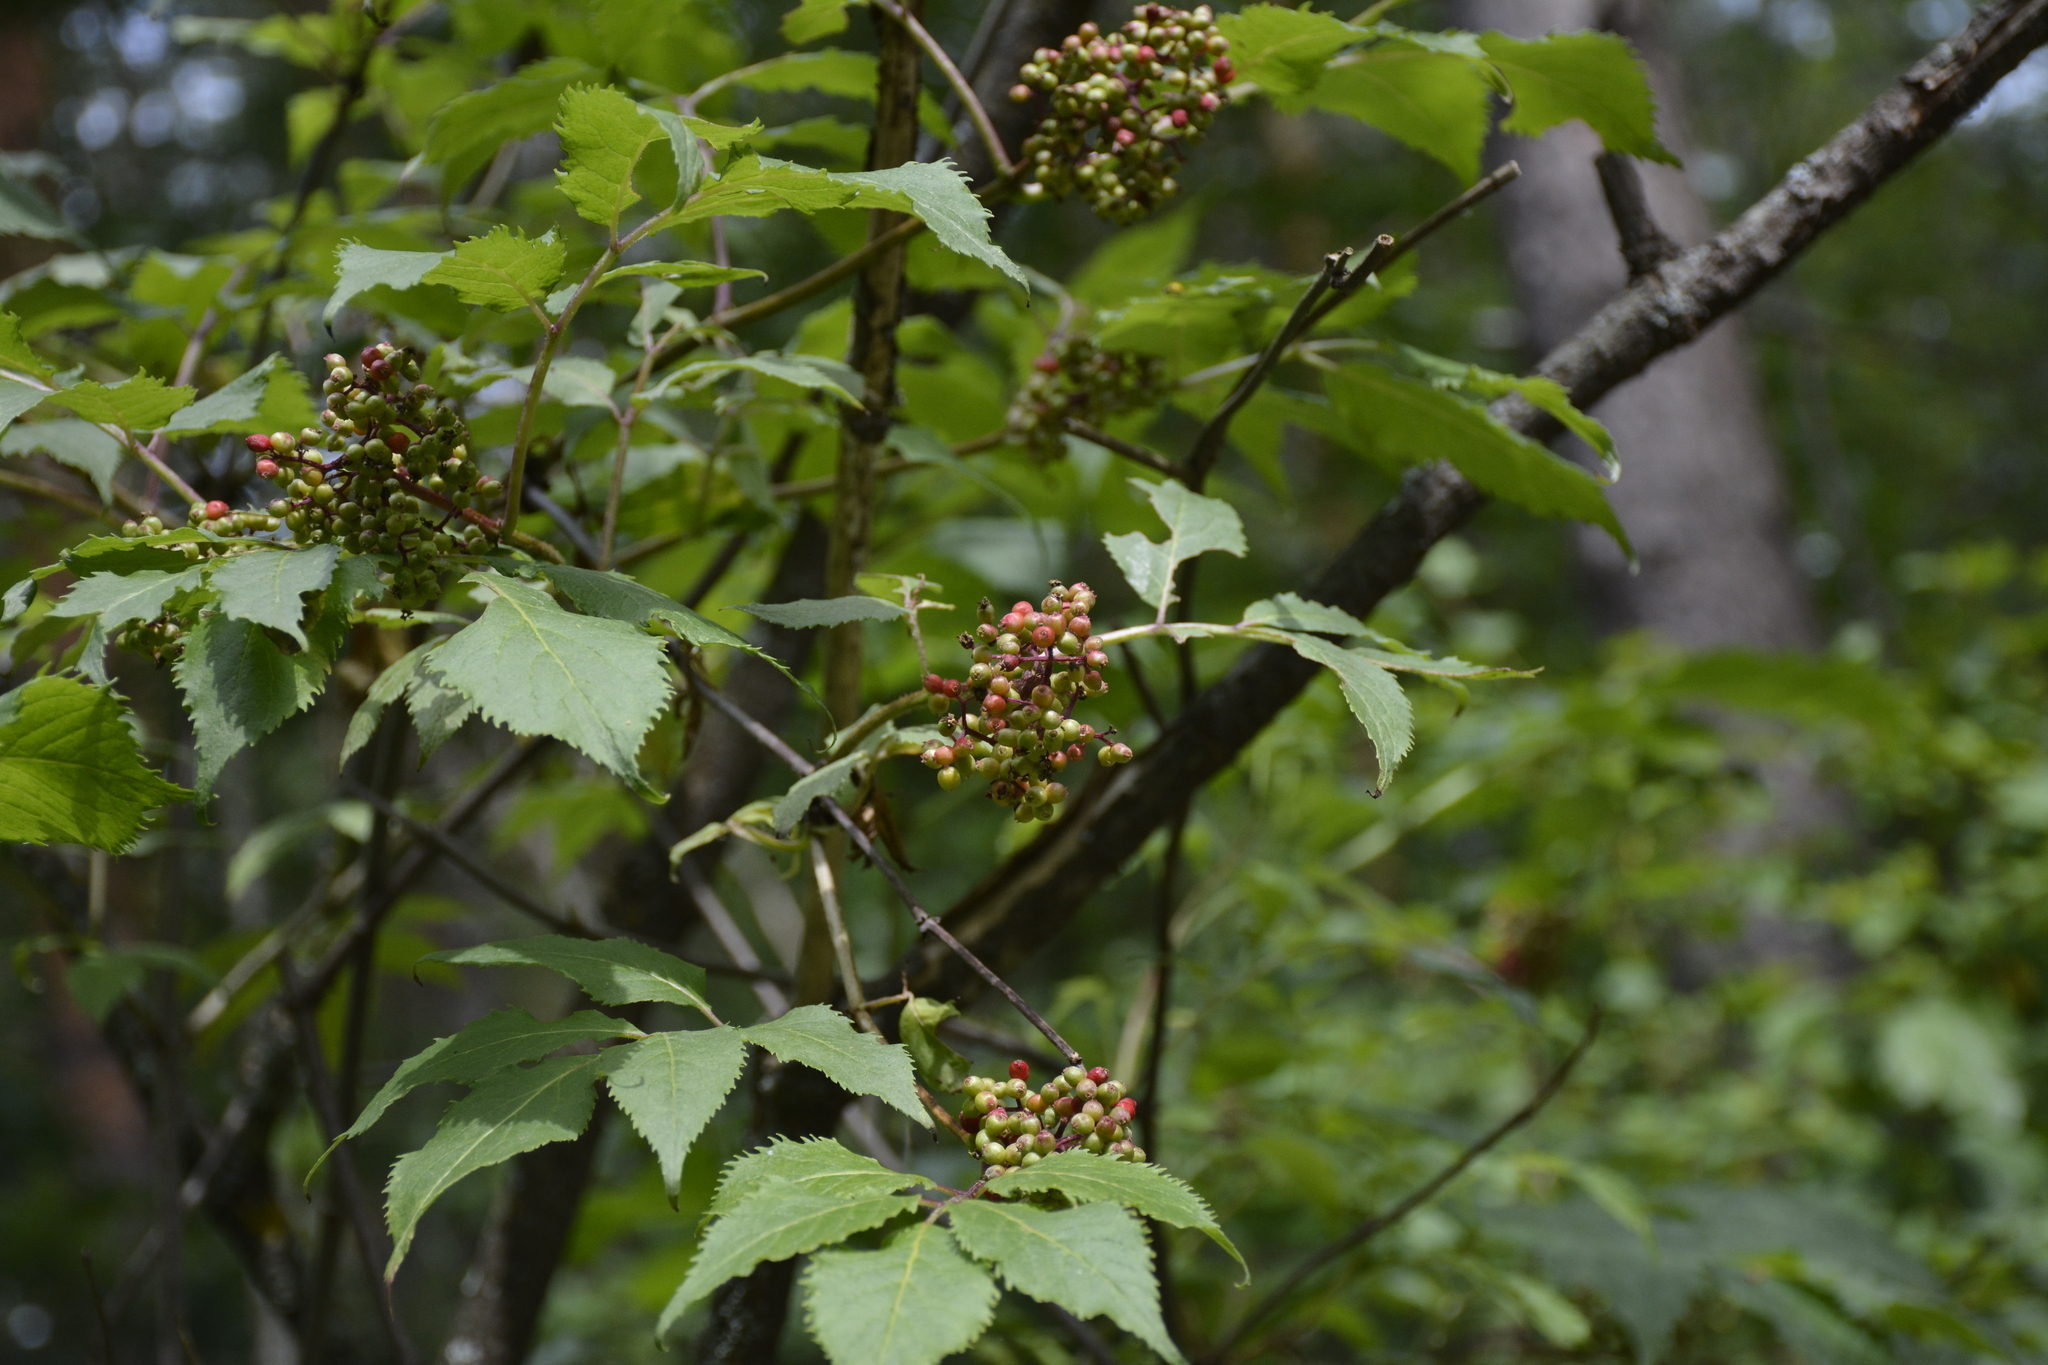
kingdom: Plantae
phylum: Tracheophyta
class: Magnoliopsida
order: Dipsacales
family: Viburnaceae
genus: Sambucus
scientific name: Sambucus racemosa
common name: Red-berried elder
